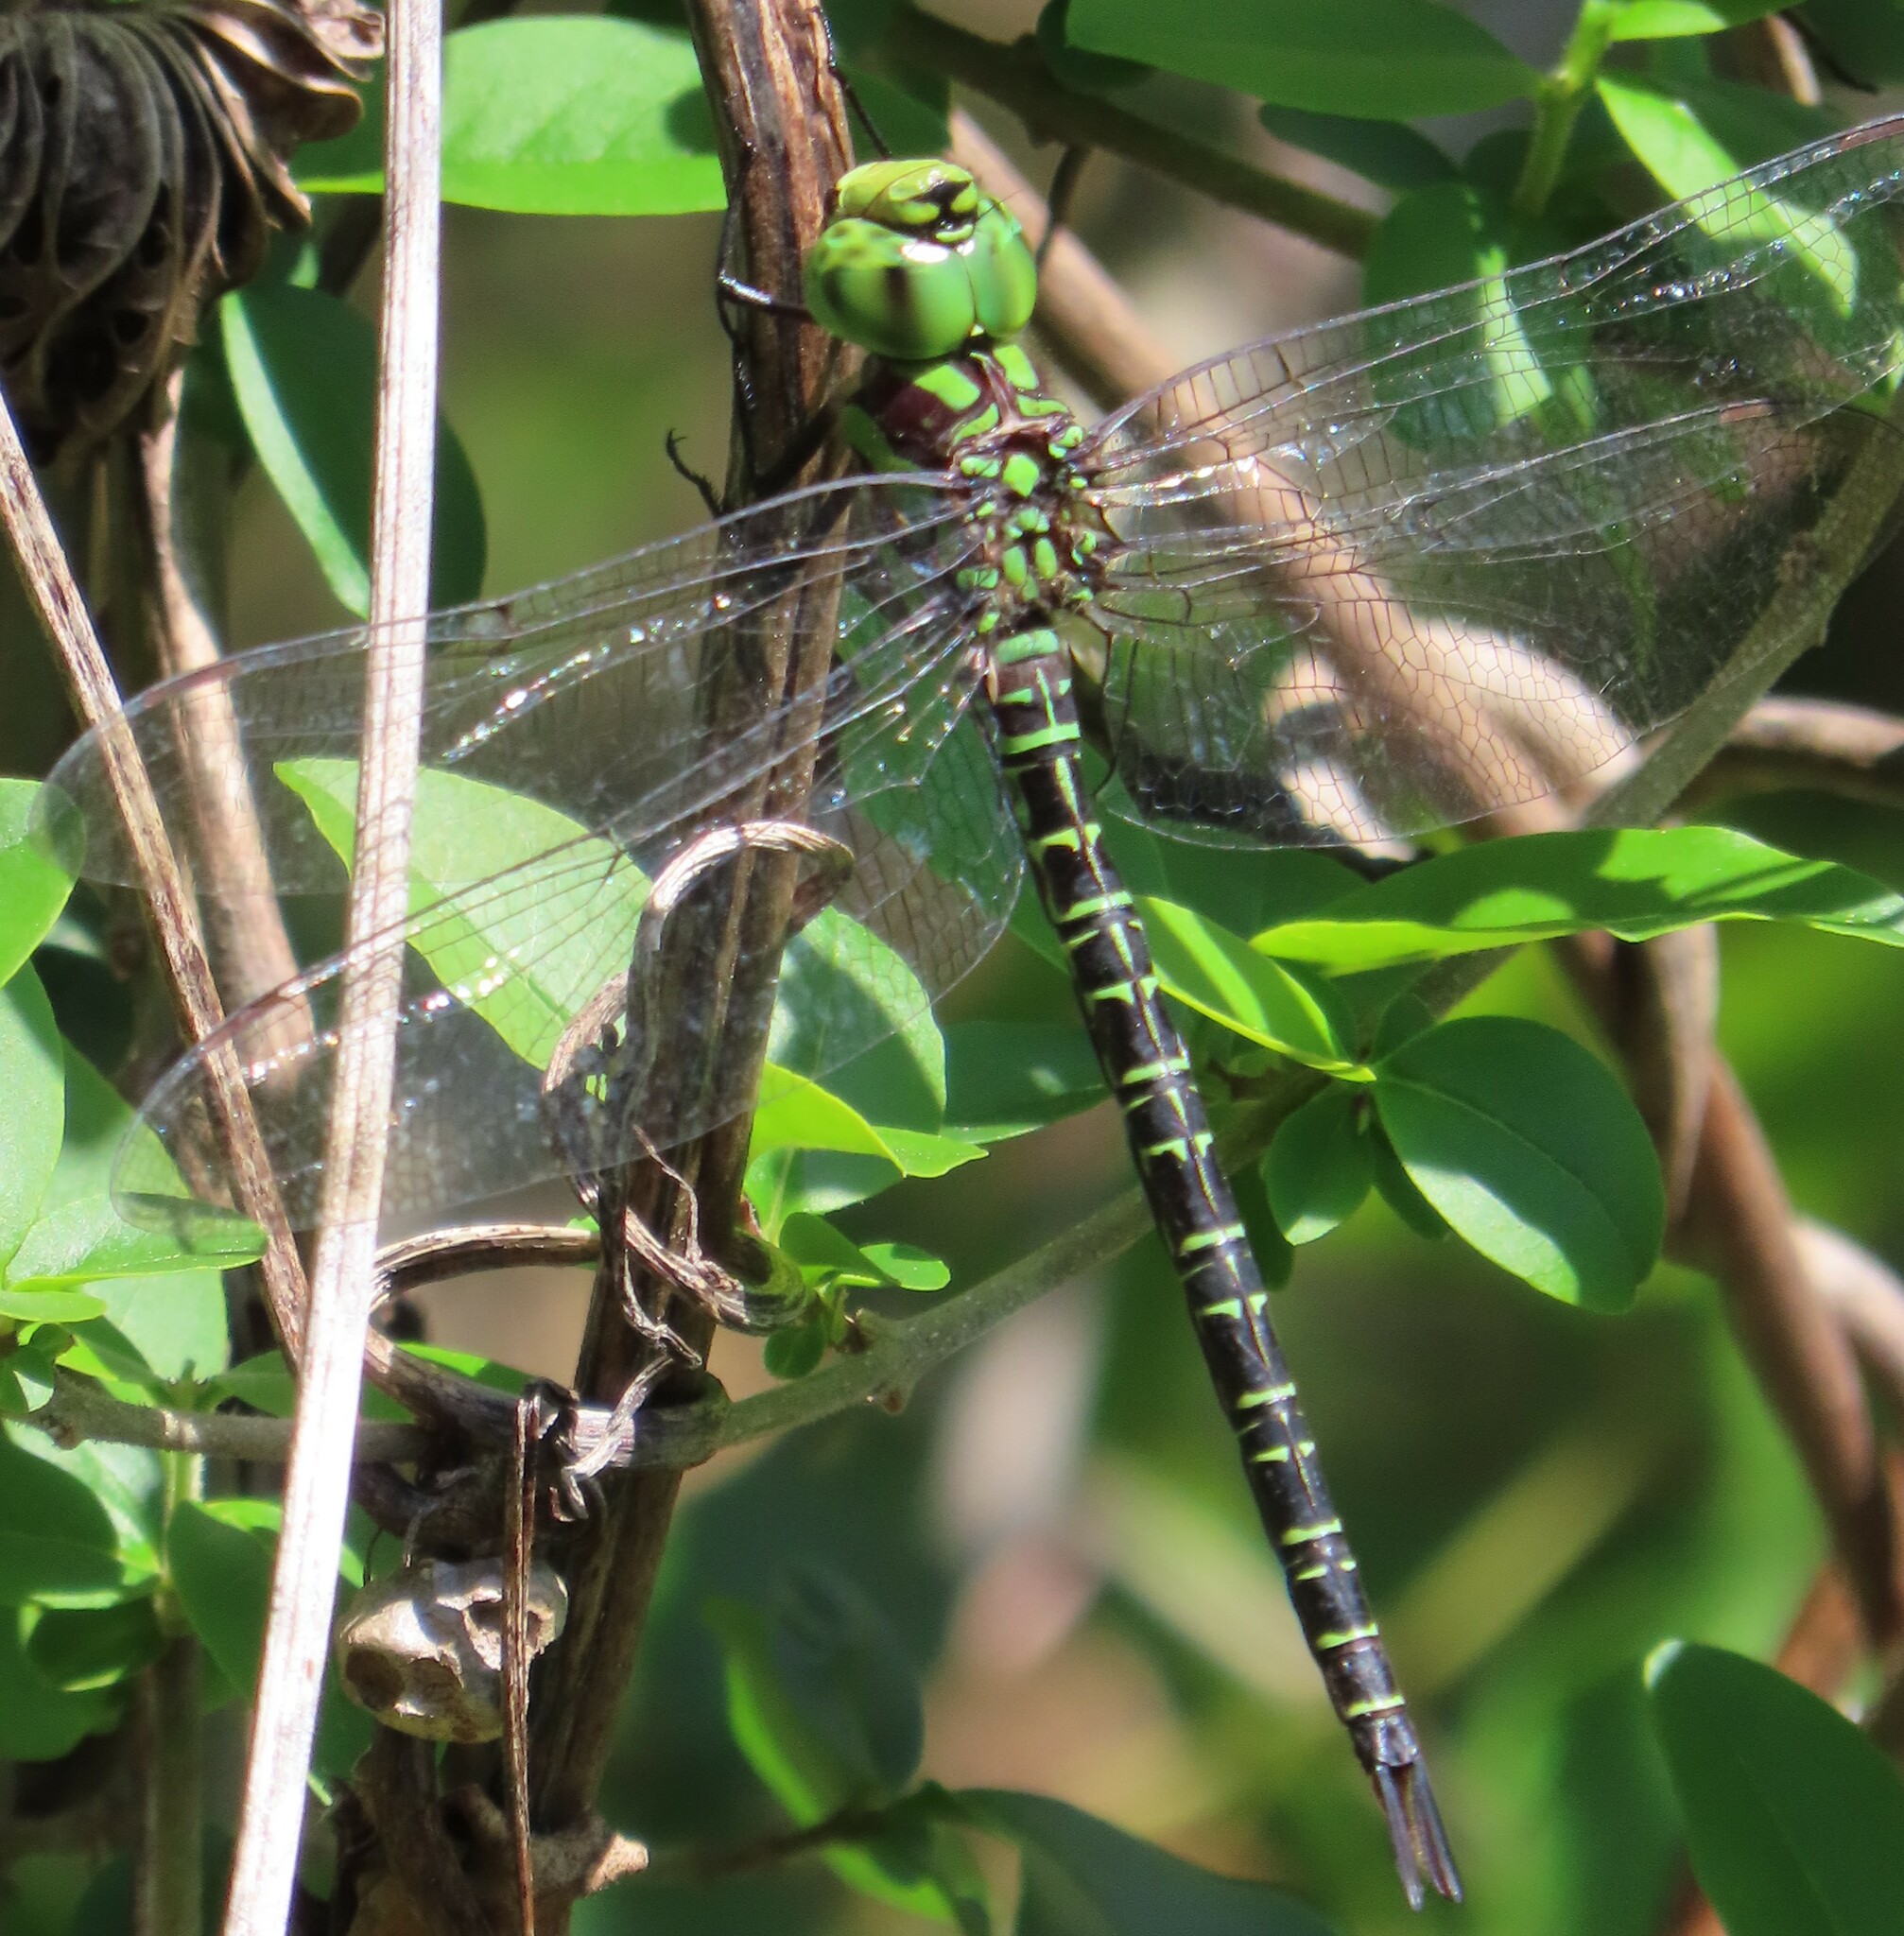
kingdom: Animalia
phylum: Arthropoda
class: Insecta
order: Odonata
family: Aeshnidae
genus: Coryphaeschna
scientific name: Coryphaeschna ingens
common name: Regal darner
